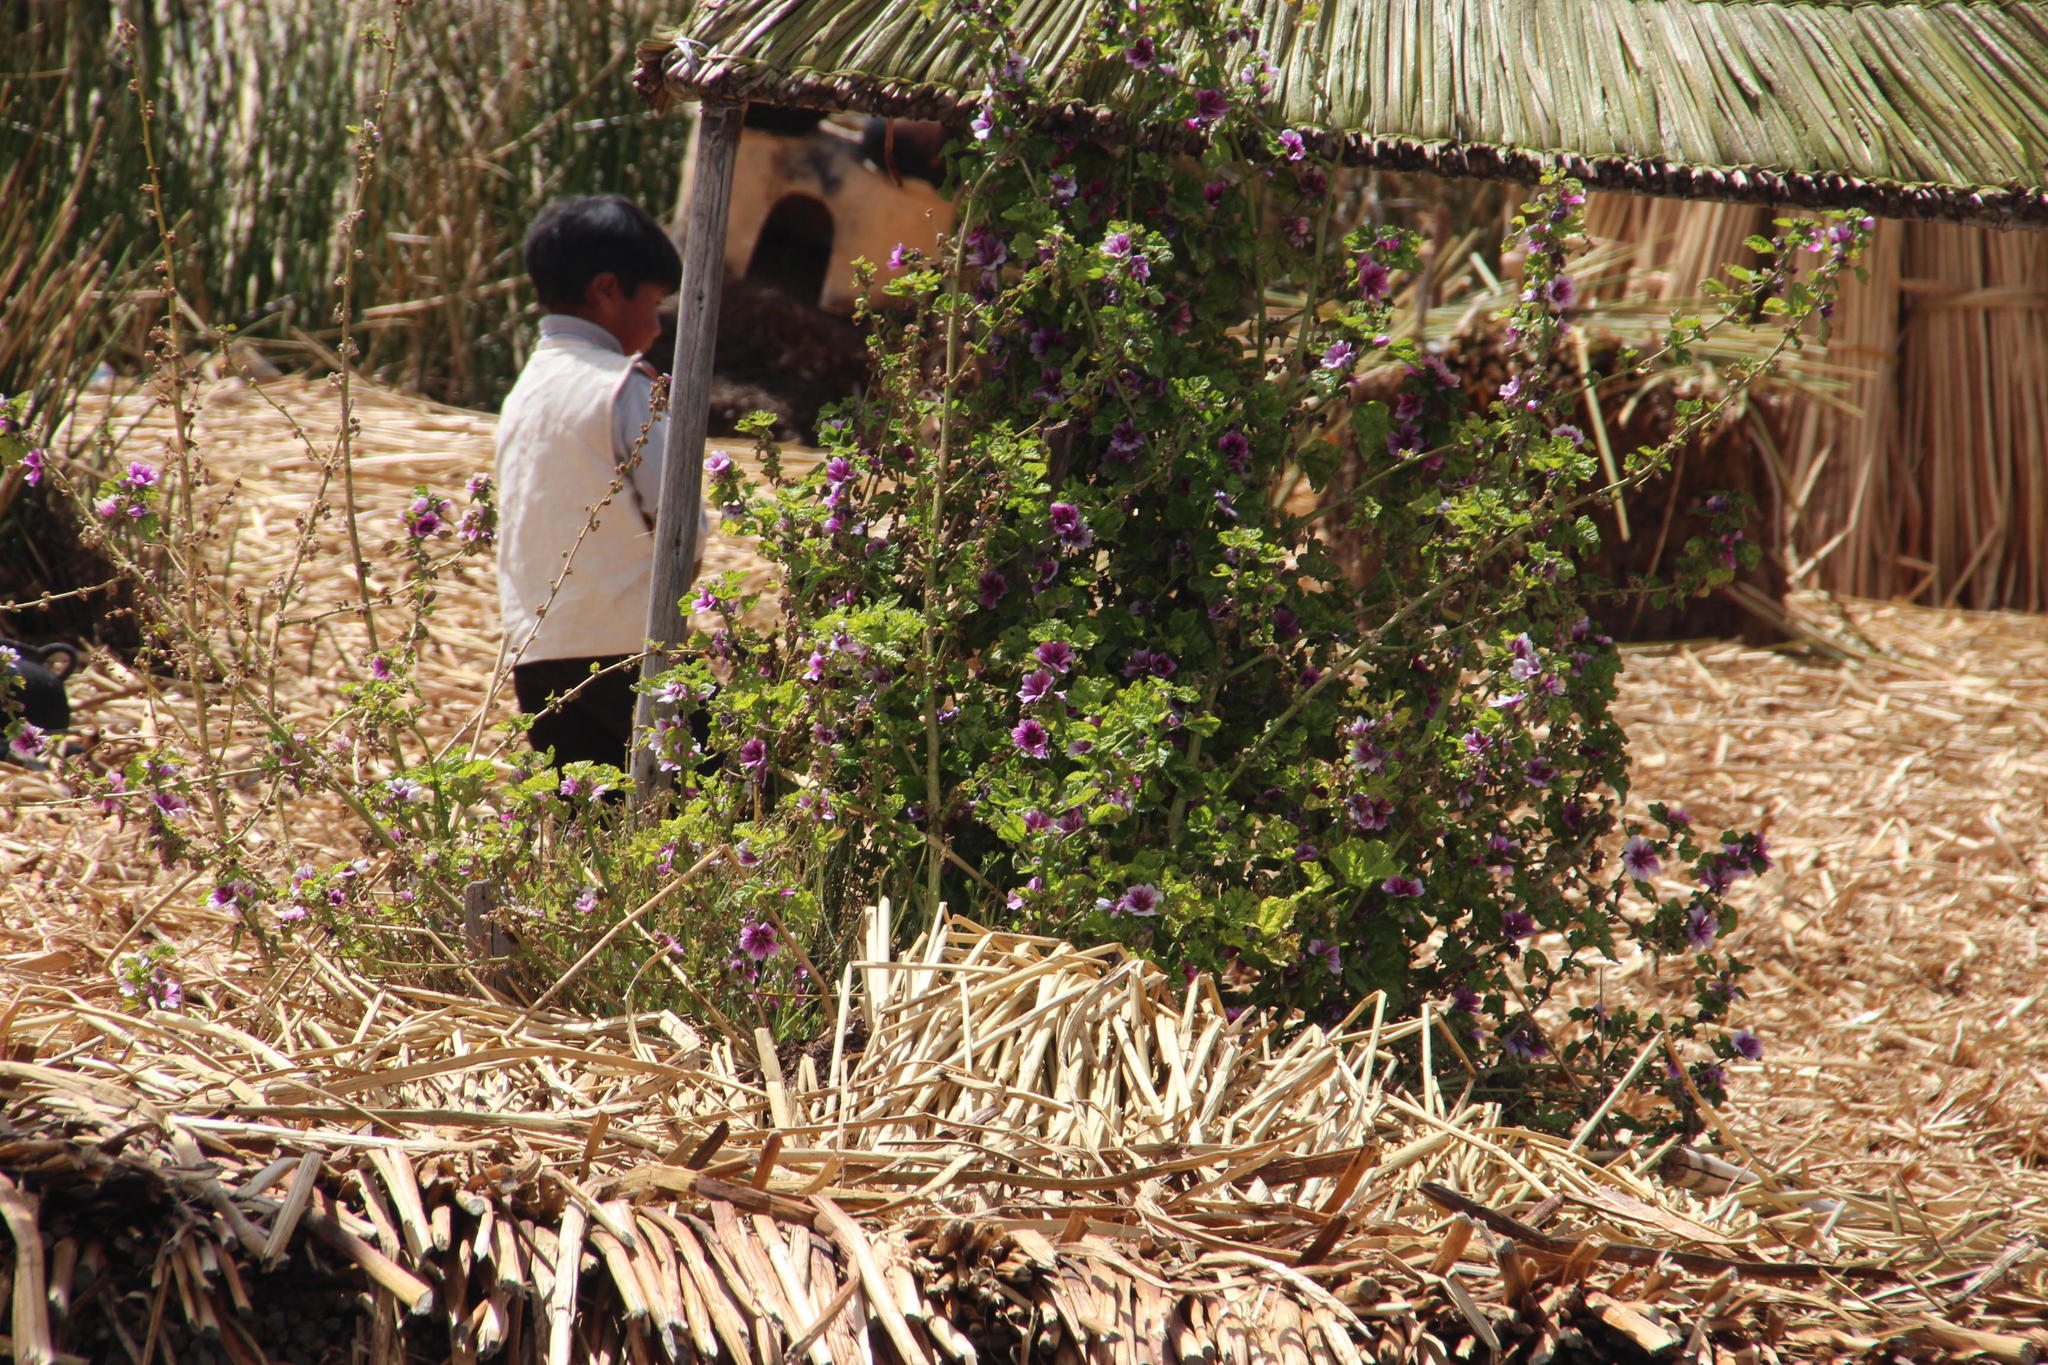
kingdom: Plantae
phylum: Tracheophyta
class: Magnoliopsida
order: Malvales
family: Malvaceae
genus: Malva
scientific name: Malva sylvestris
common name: Common mallow
